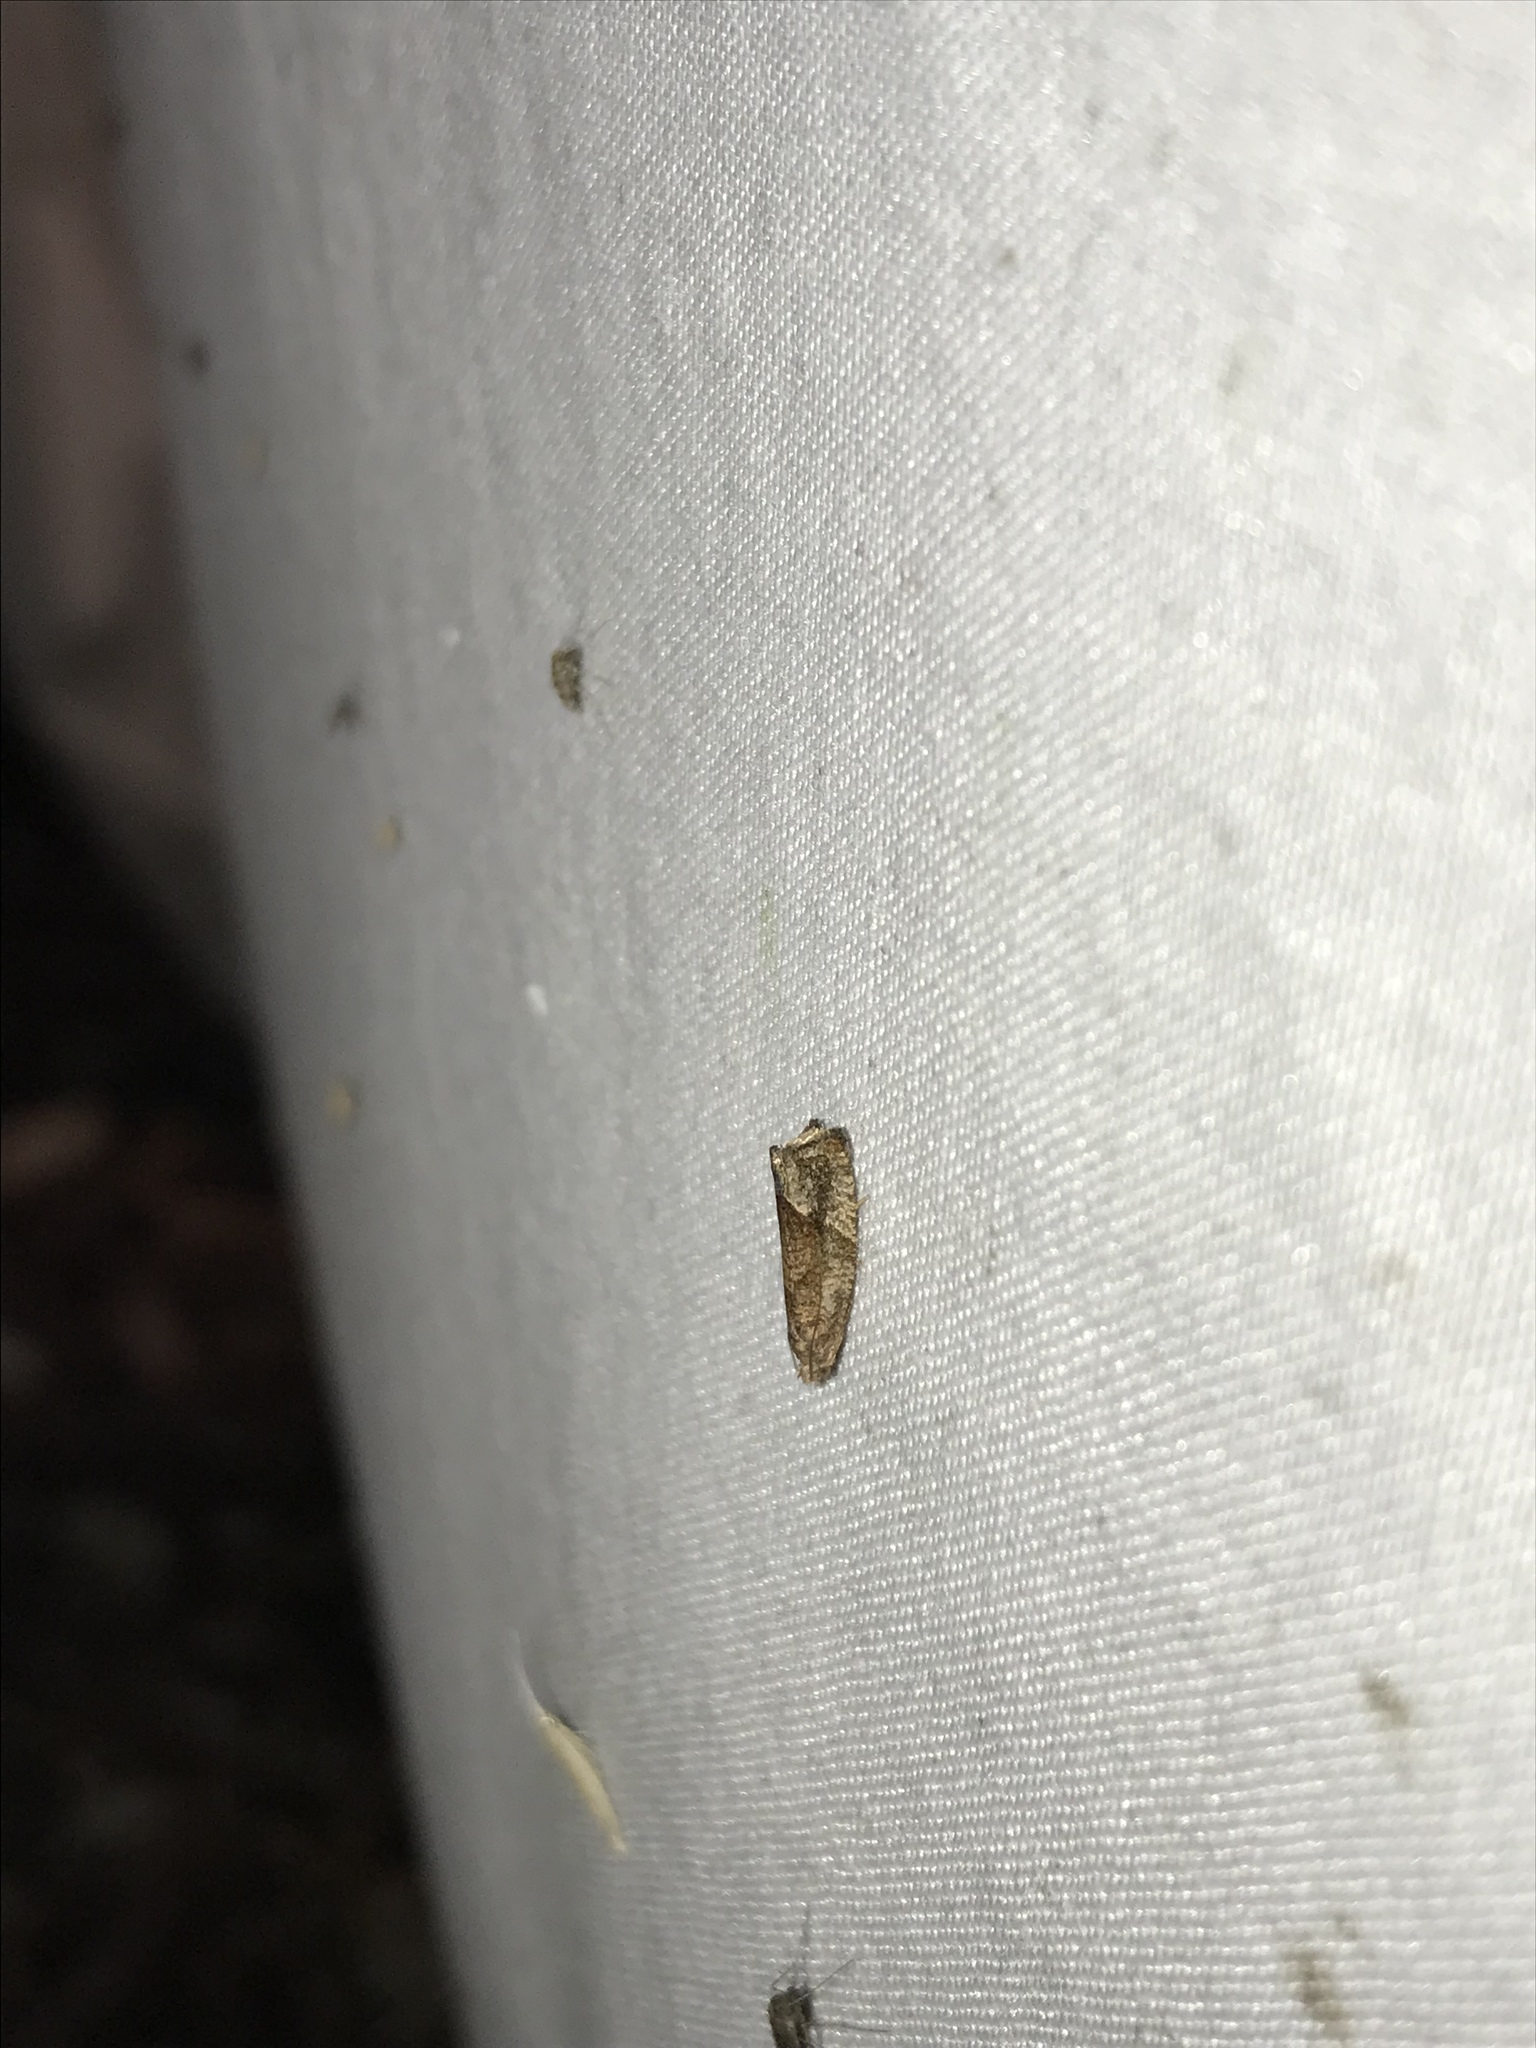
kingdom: Animalia
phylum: Arthropoda
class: Insecta
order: Lepidoptera
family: Tortricidae
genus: Pelochrista
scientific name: Pelochrista derelicta
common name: Derelict pelochrista moth
